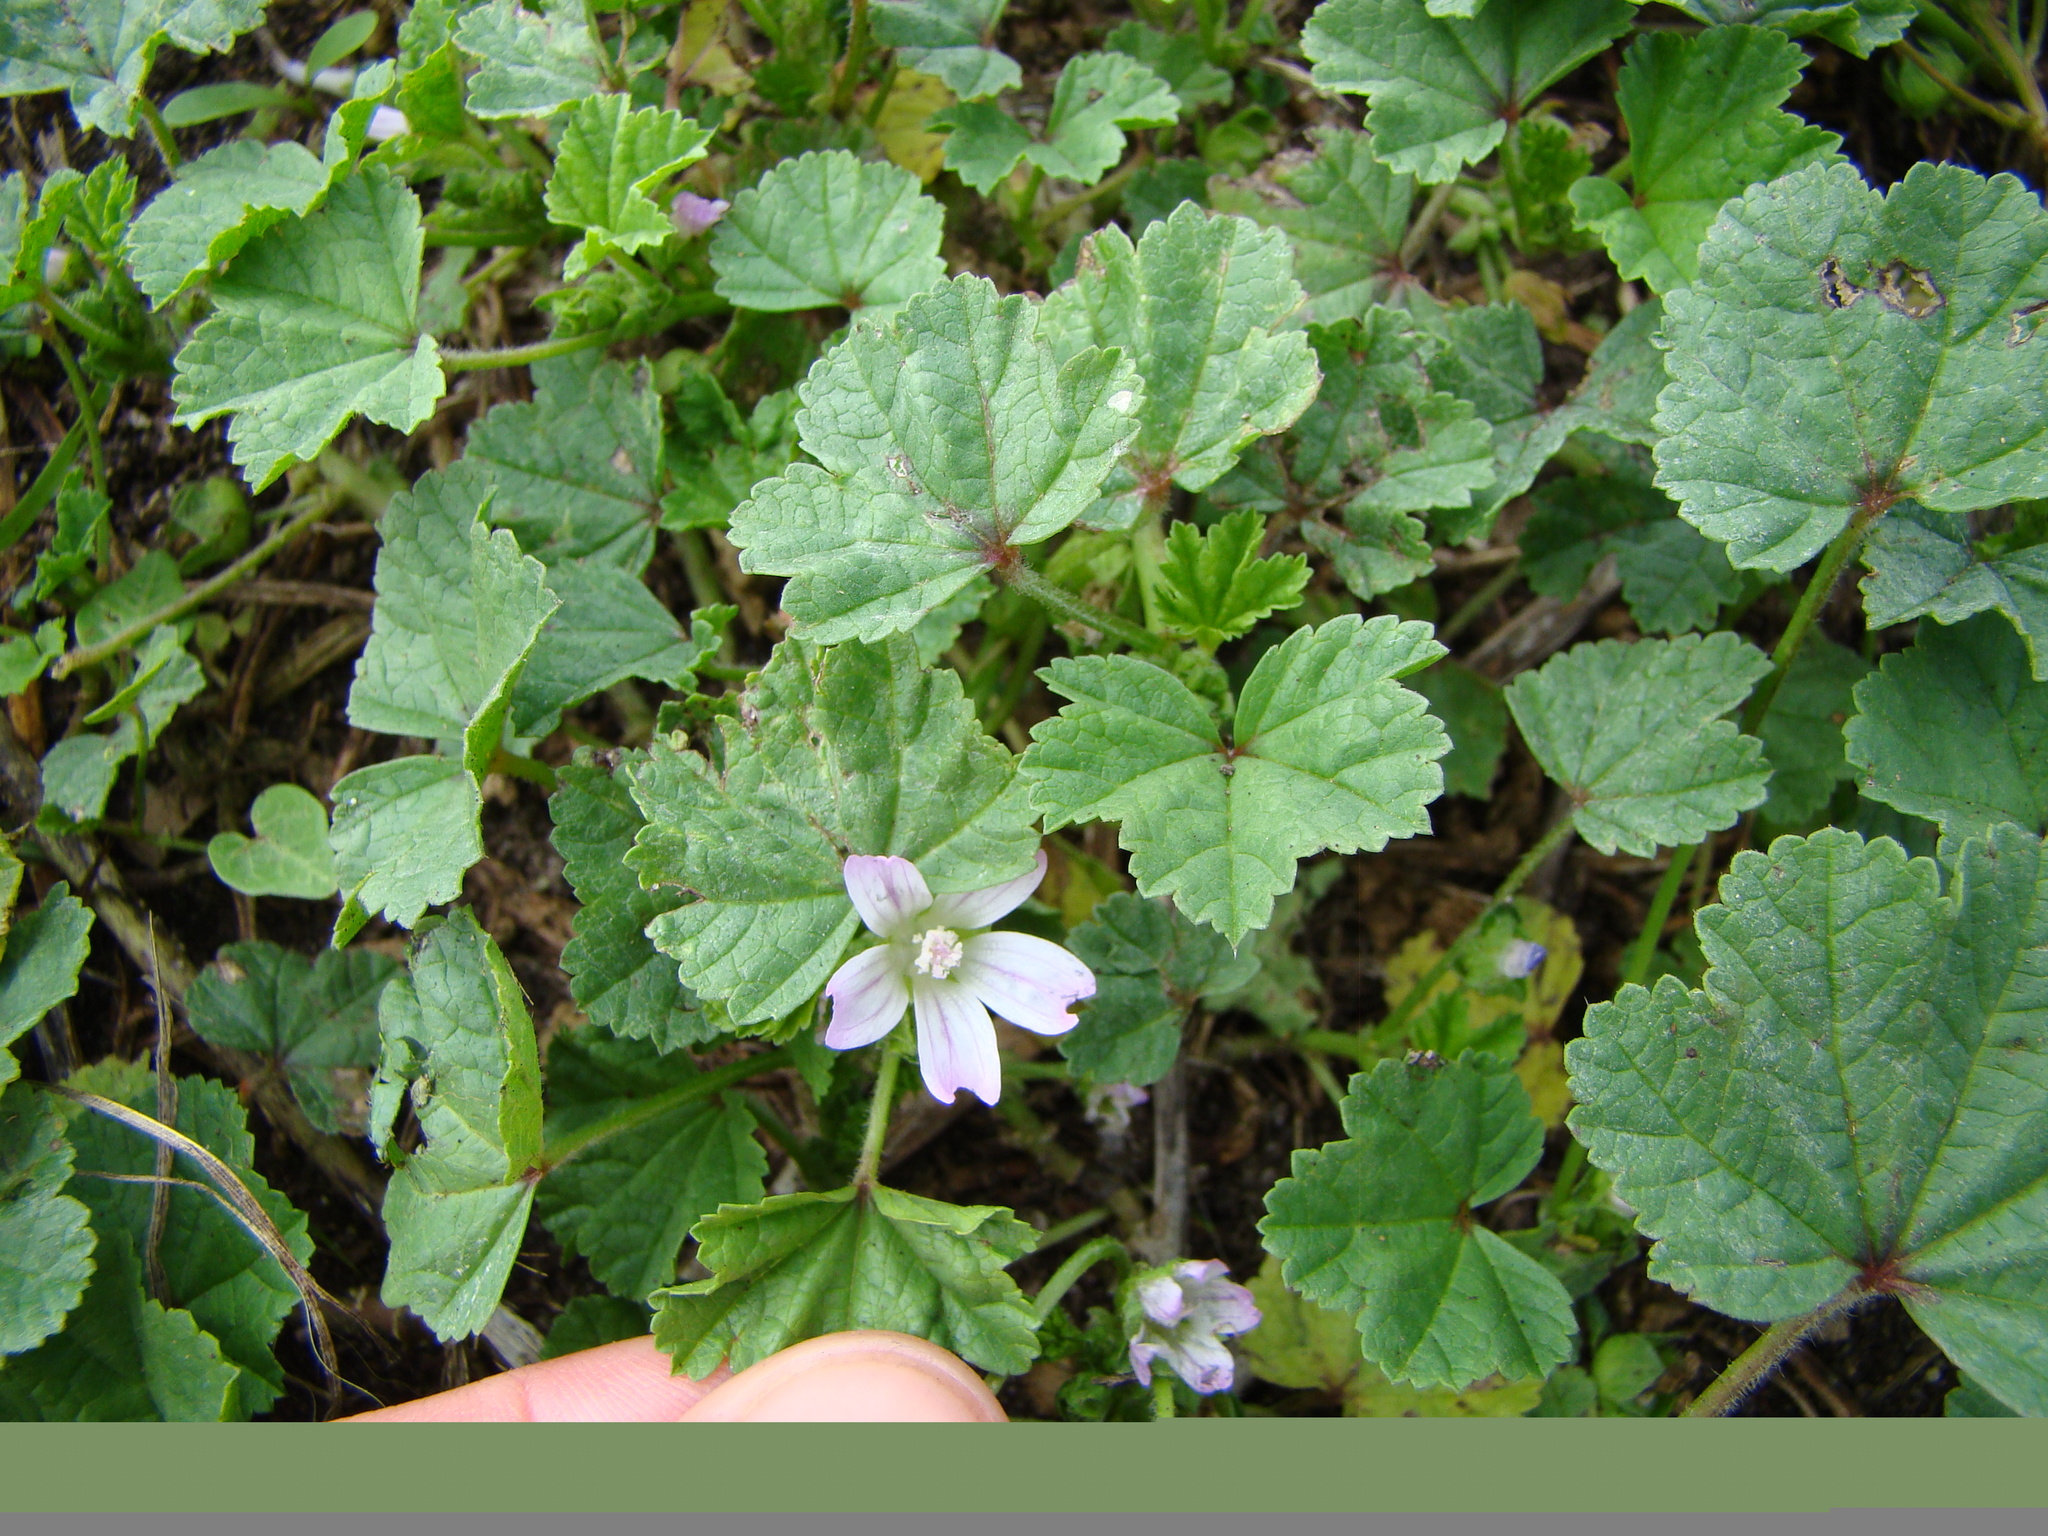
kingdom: Plantae
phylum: Tracheophyta
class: Magnoliopsida
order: Malvales
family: Malvaceae
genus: Malva
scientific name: Malva neglecta
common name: Common mallow
